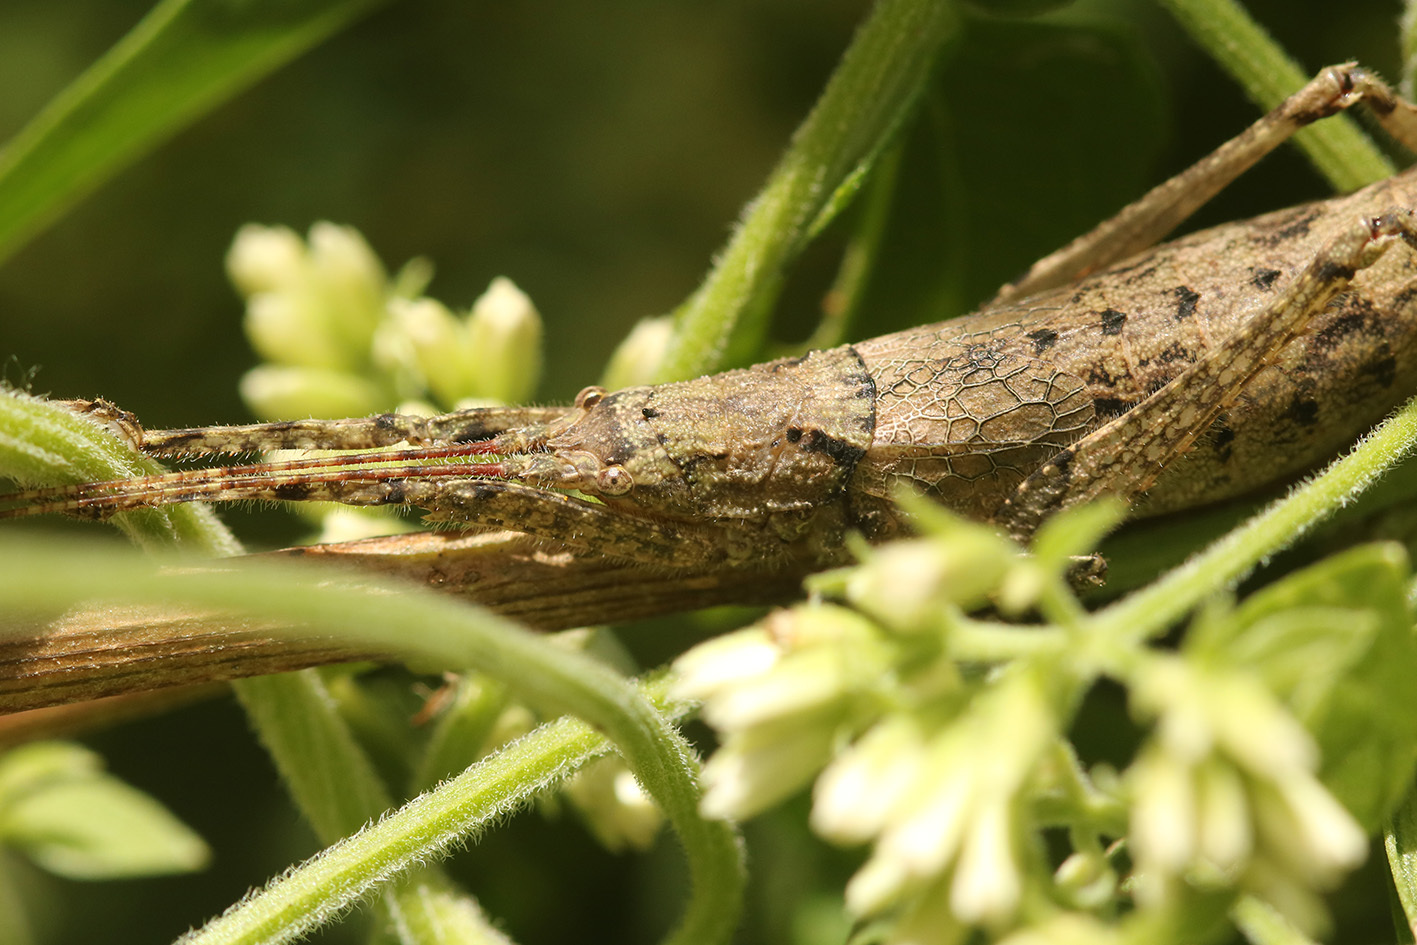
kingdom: Animalia
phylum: Arthropoda
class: Insecta
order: Orthoptera
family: Tettigoniidae
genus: Dasyscelus
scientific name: Dasyscelus normalis
